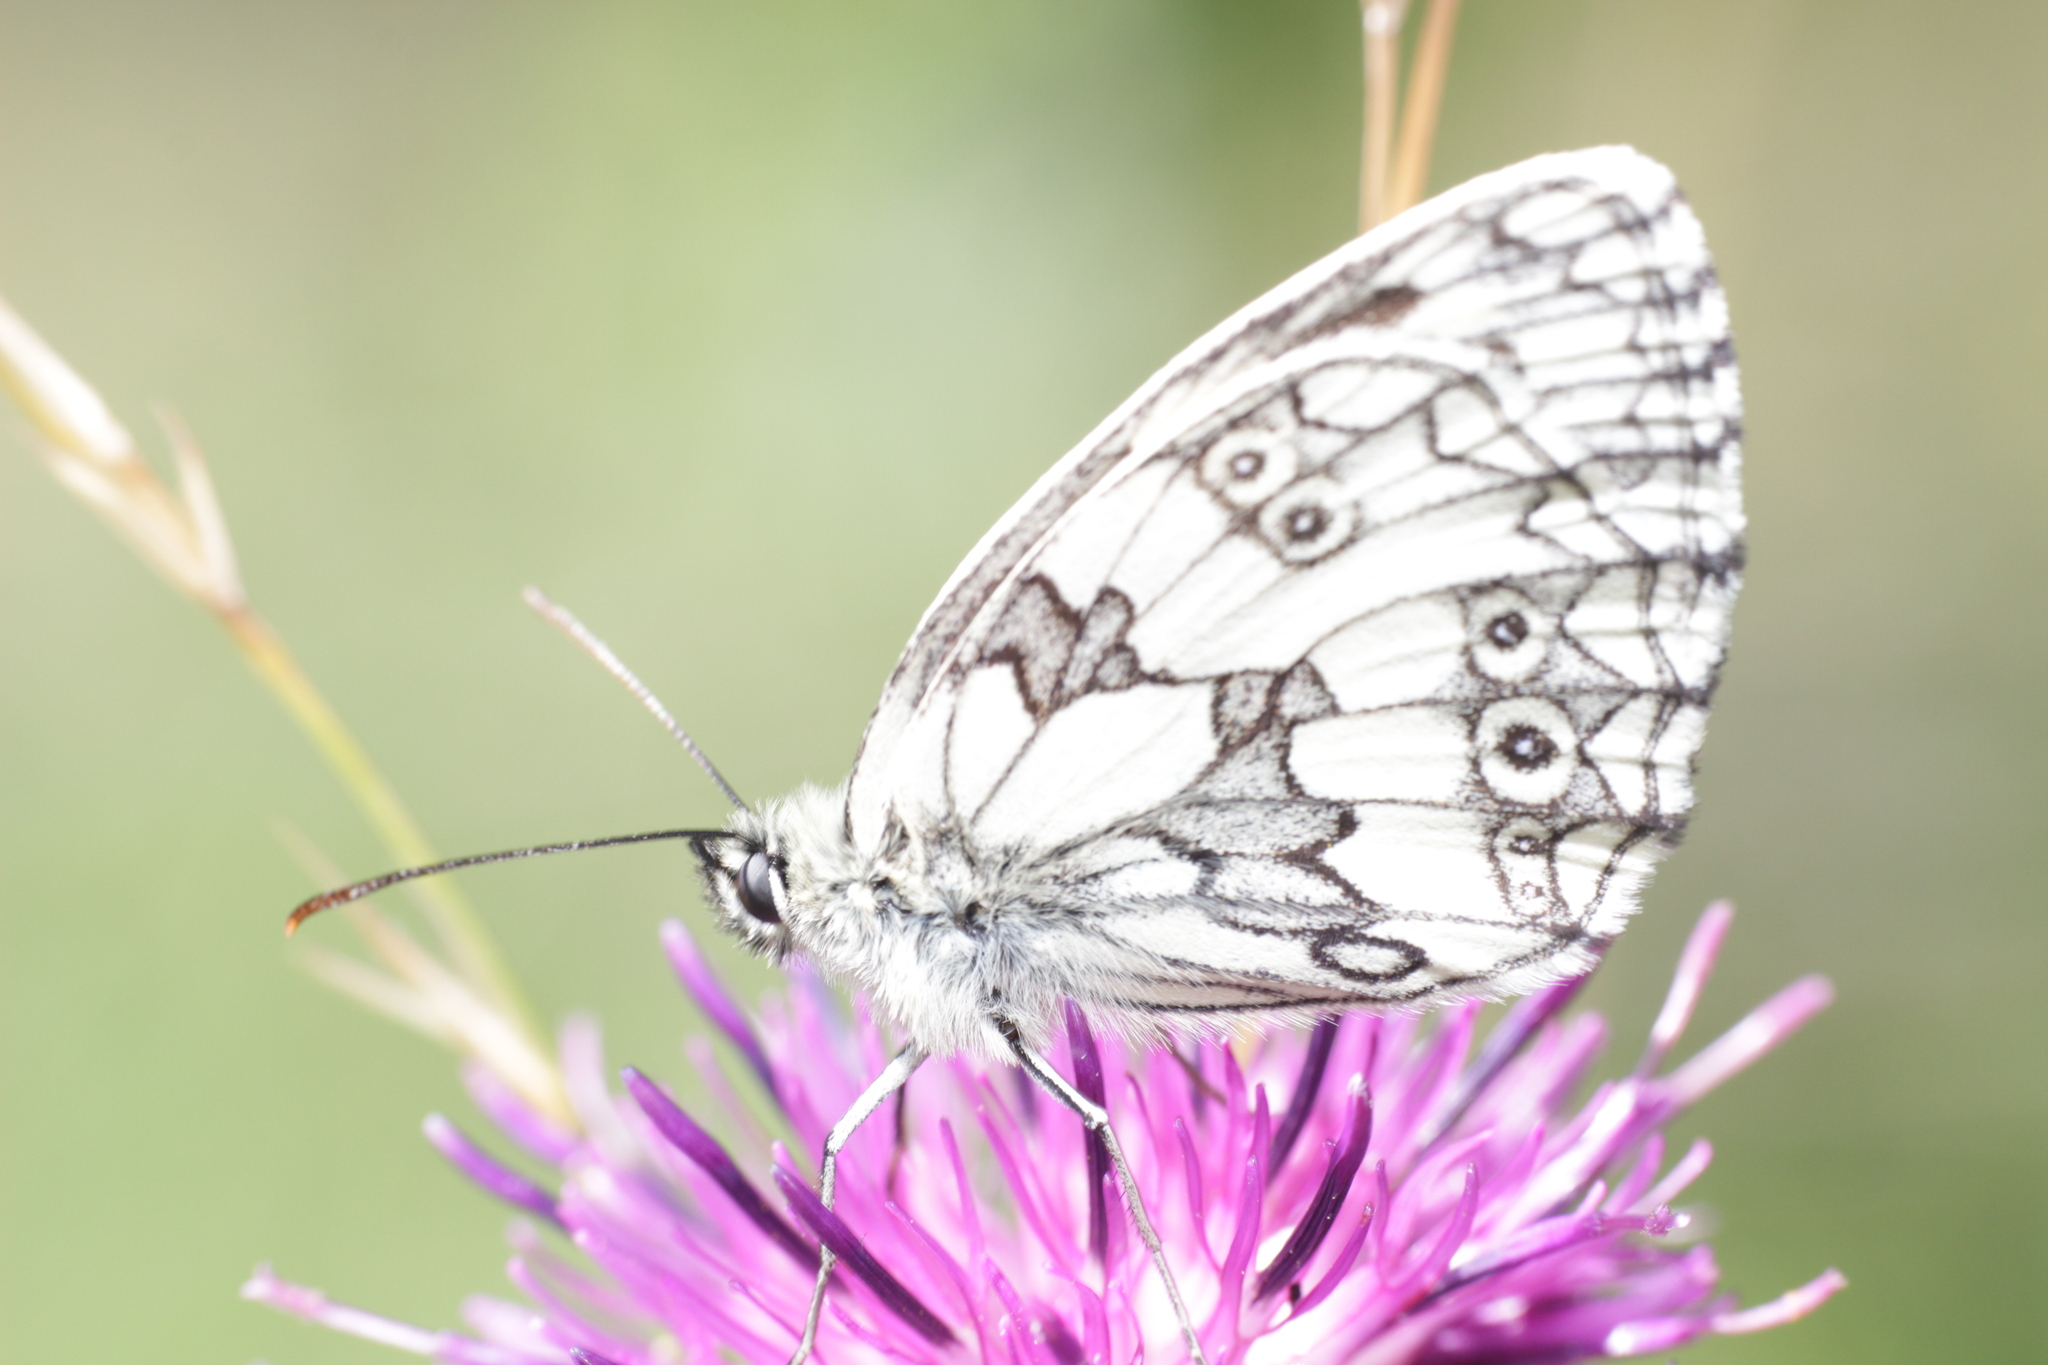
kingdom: Animalia
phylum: Arthropoda
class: Insecta
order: Lepidoptera
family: Nymphalidae
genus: Melanargia
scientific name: Melanargia galathea
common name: Marbled white
